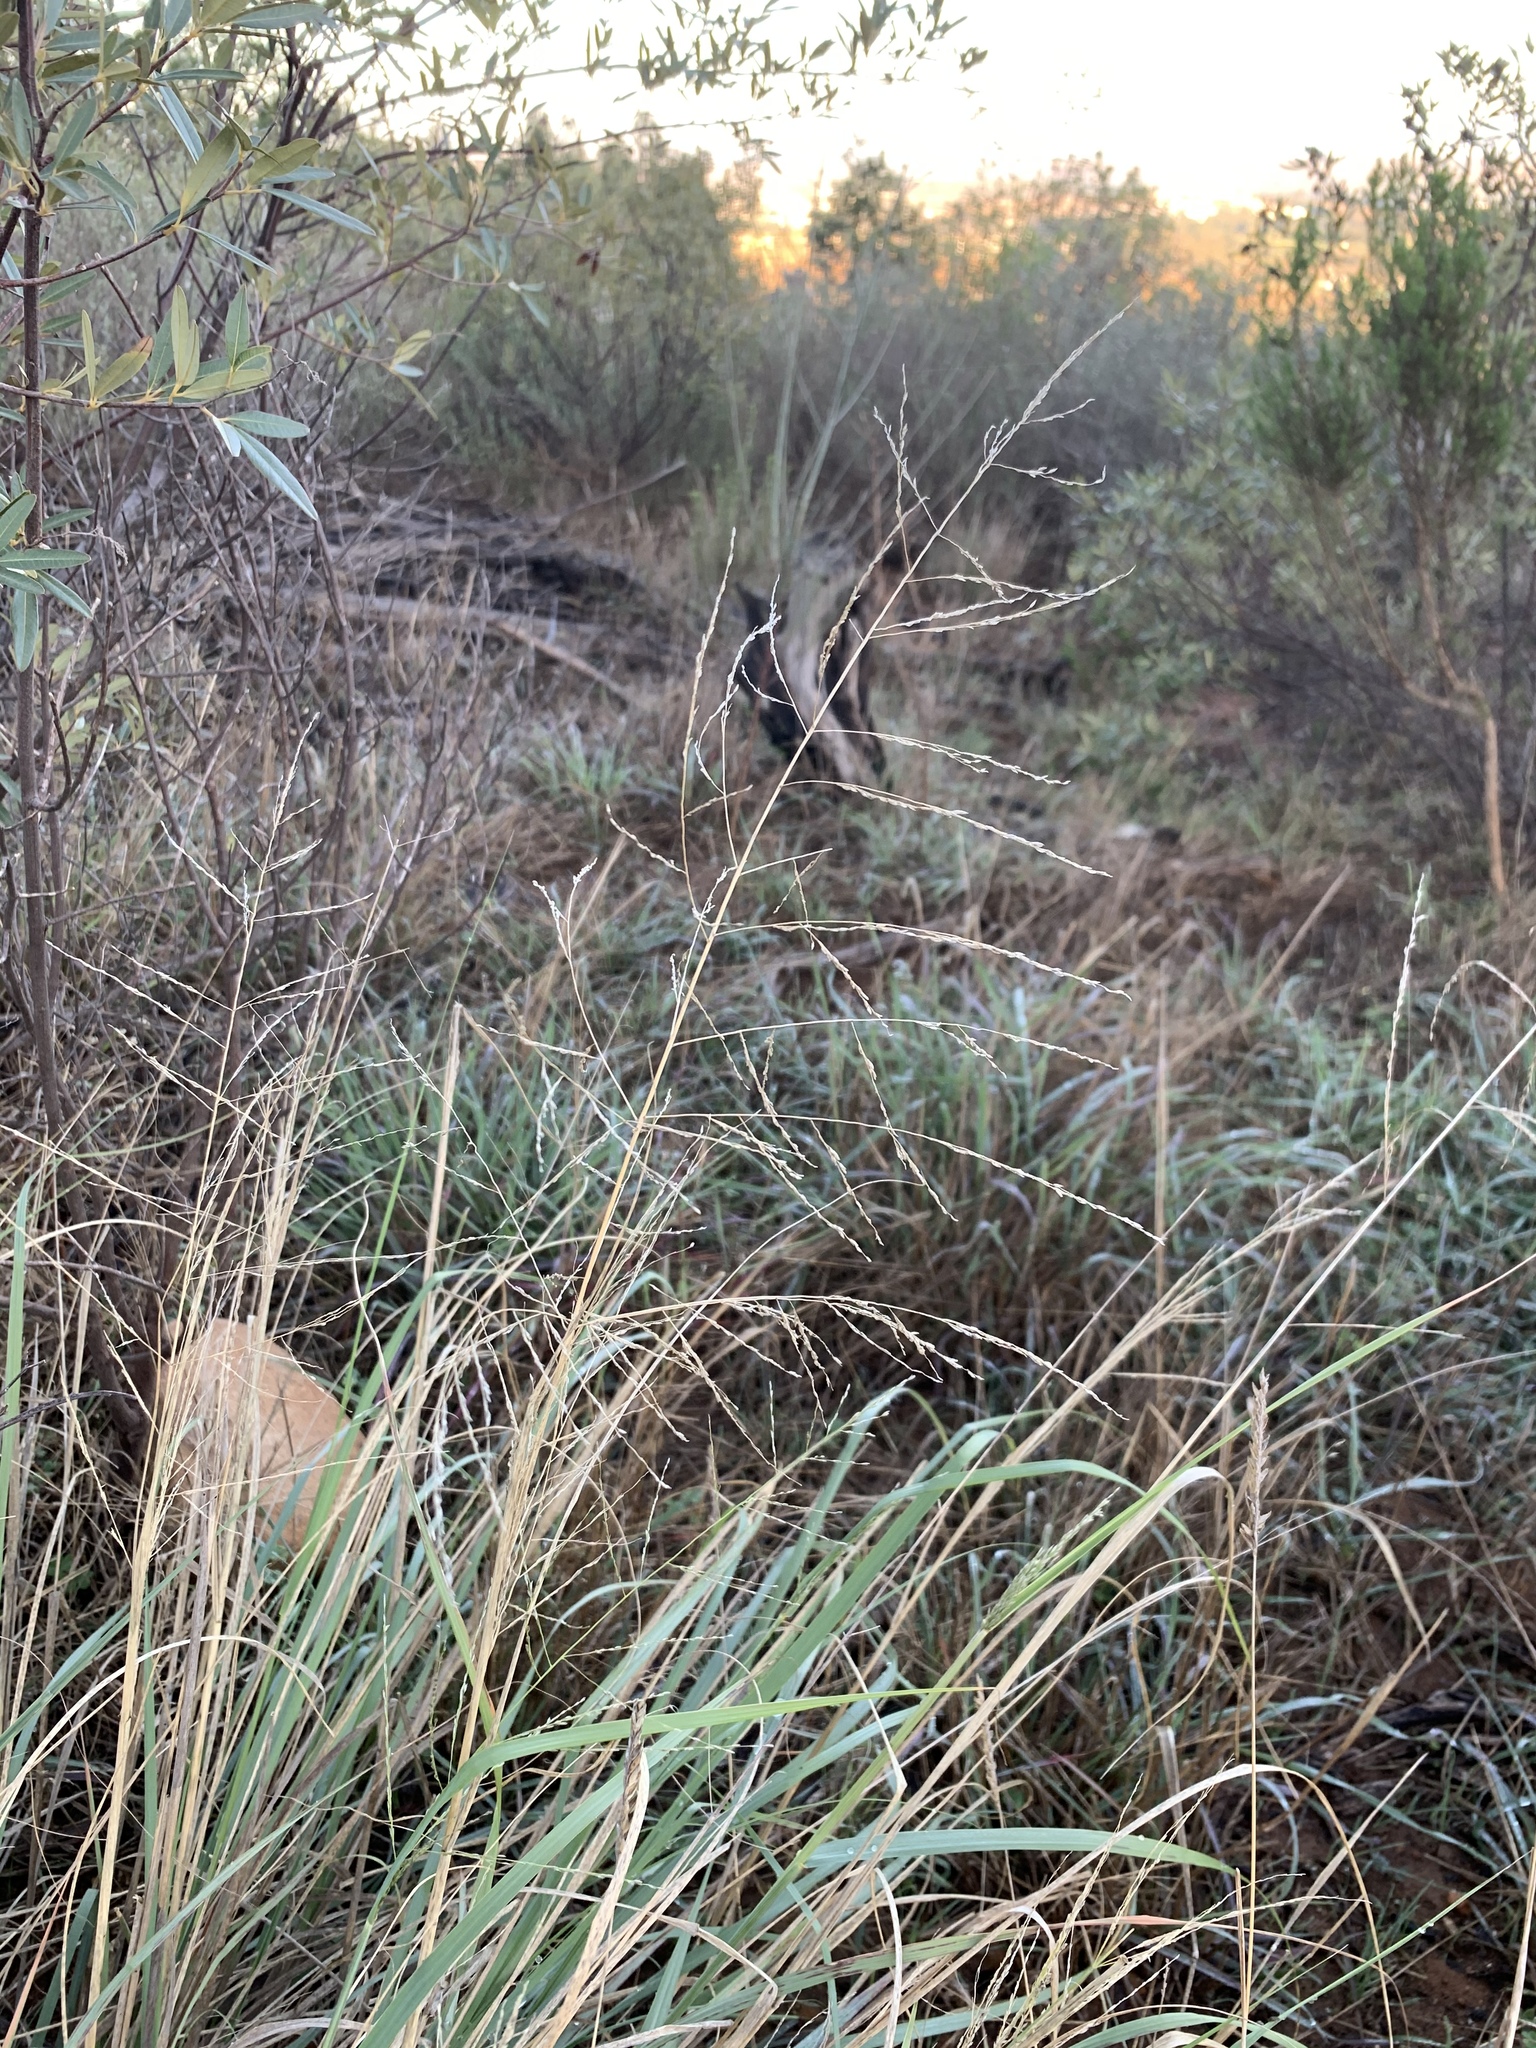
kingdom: Plantae
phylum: Tracheophyta
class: Liliopsida
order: Poales
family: Poaceae
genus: Eragrostis
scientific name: Eragrostis curvula
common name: African love-grass
